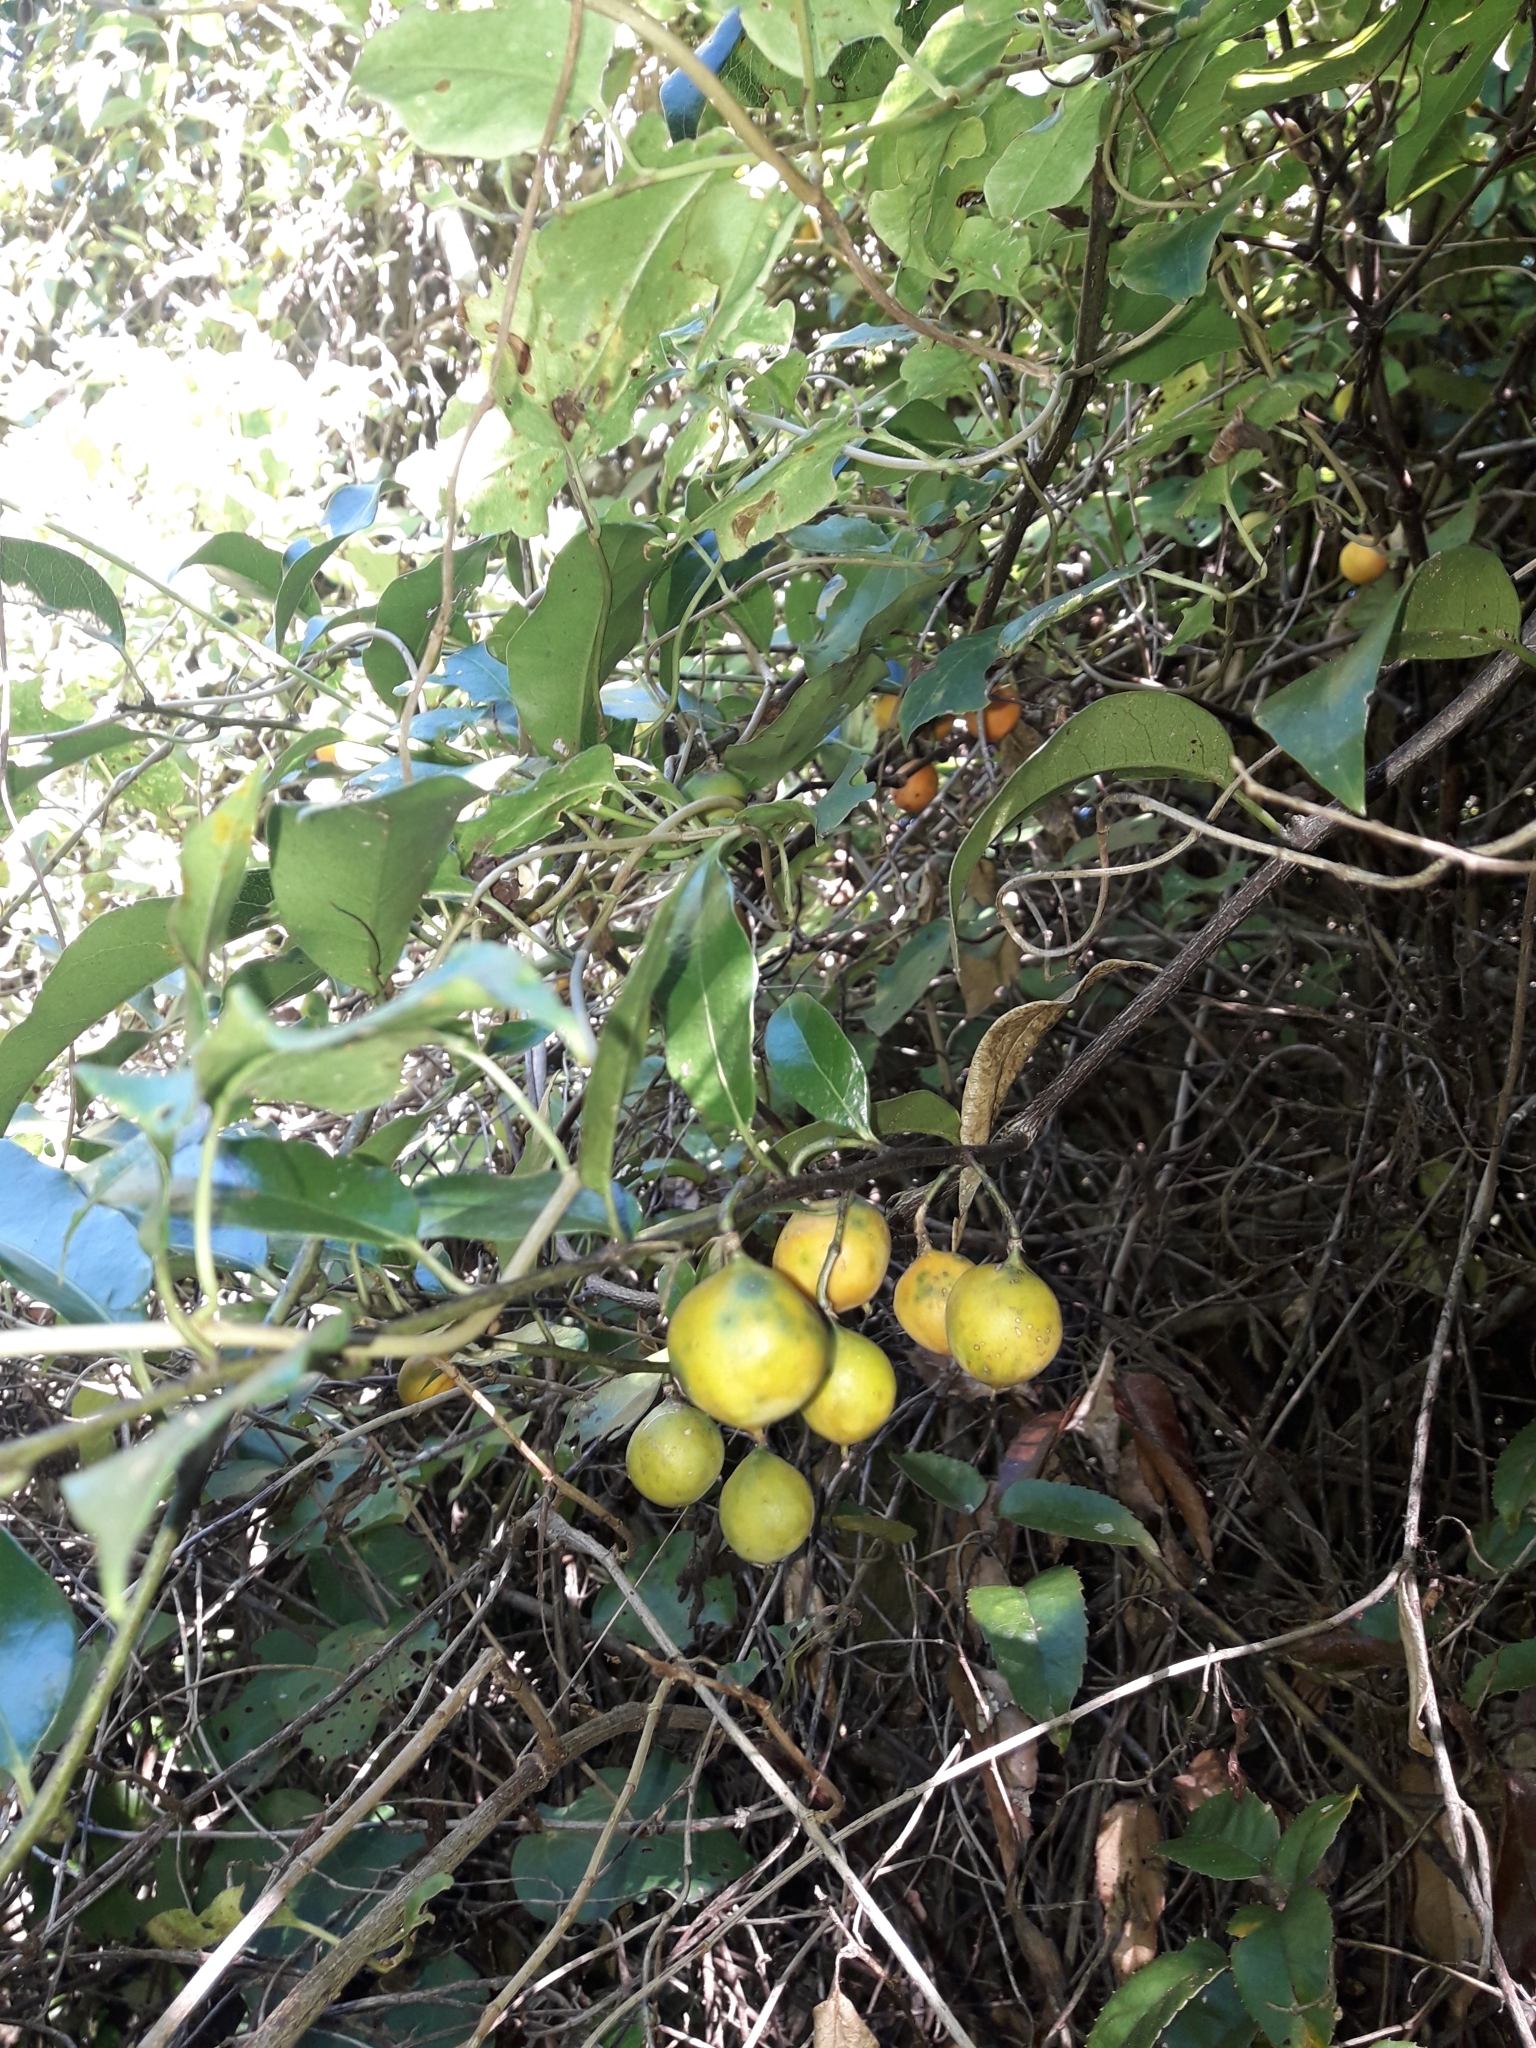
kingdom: Plantae
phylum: Tracheophyta
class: Magnoliopsida
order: Malpighiales
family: Passifloraceae
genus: Passiflora
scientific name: Passiflora tetrandra
